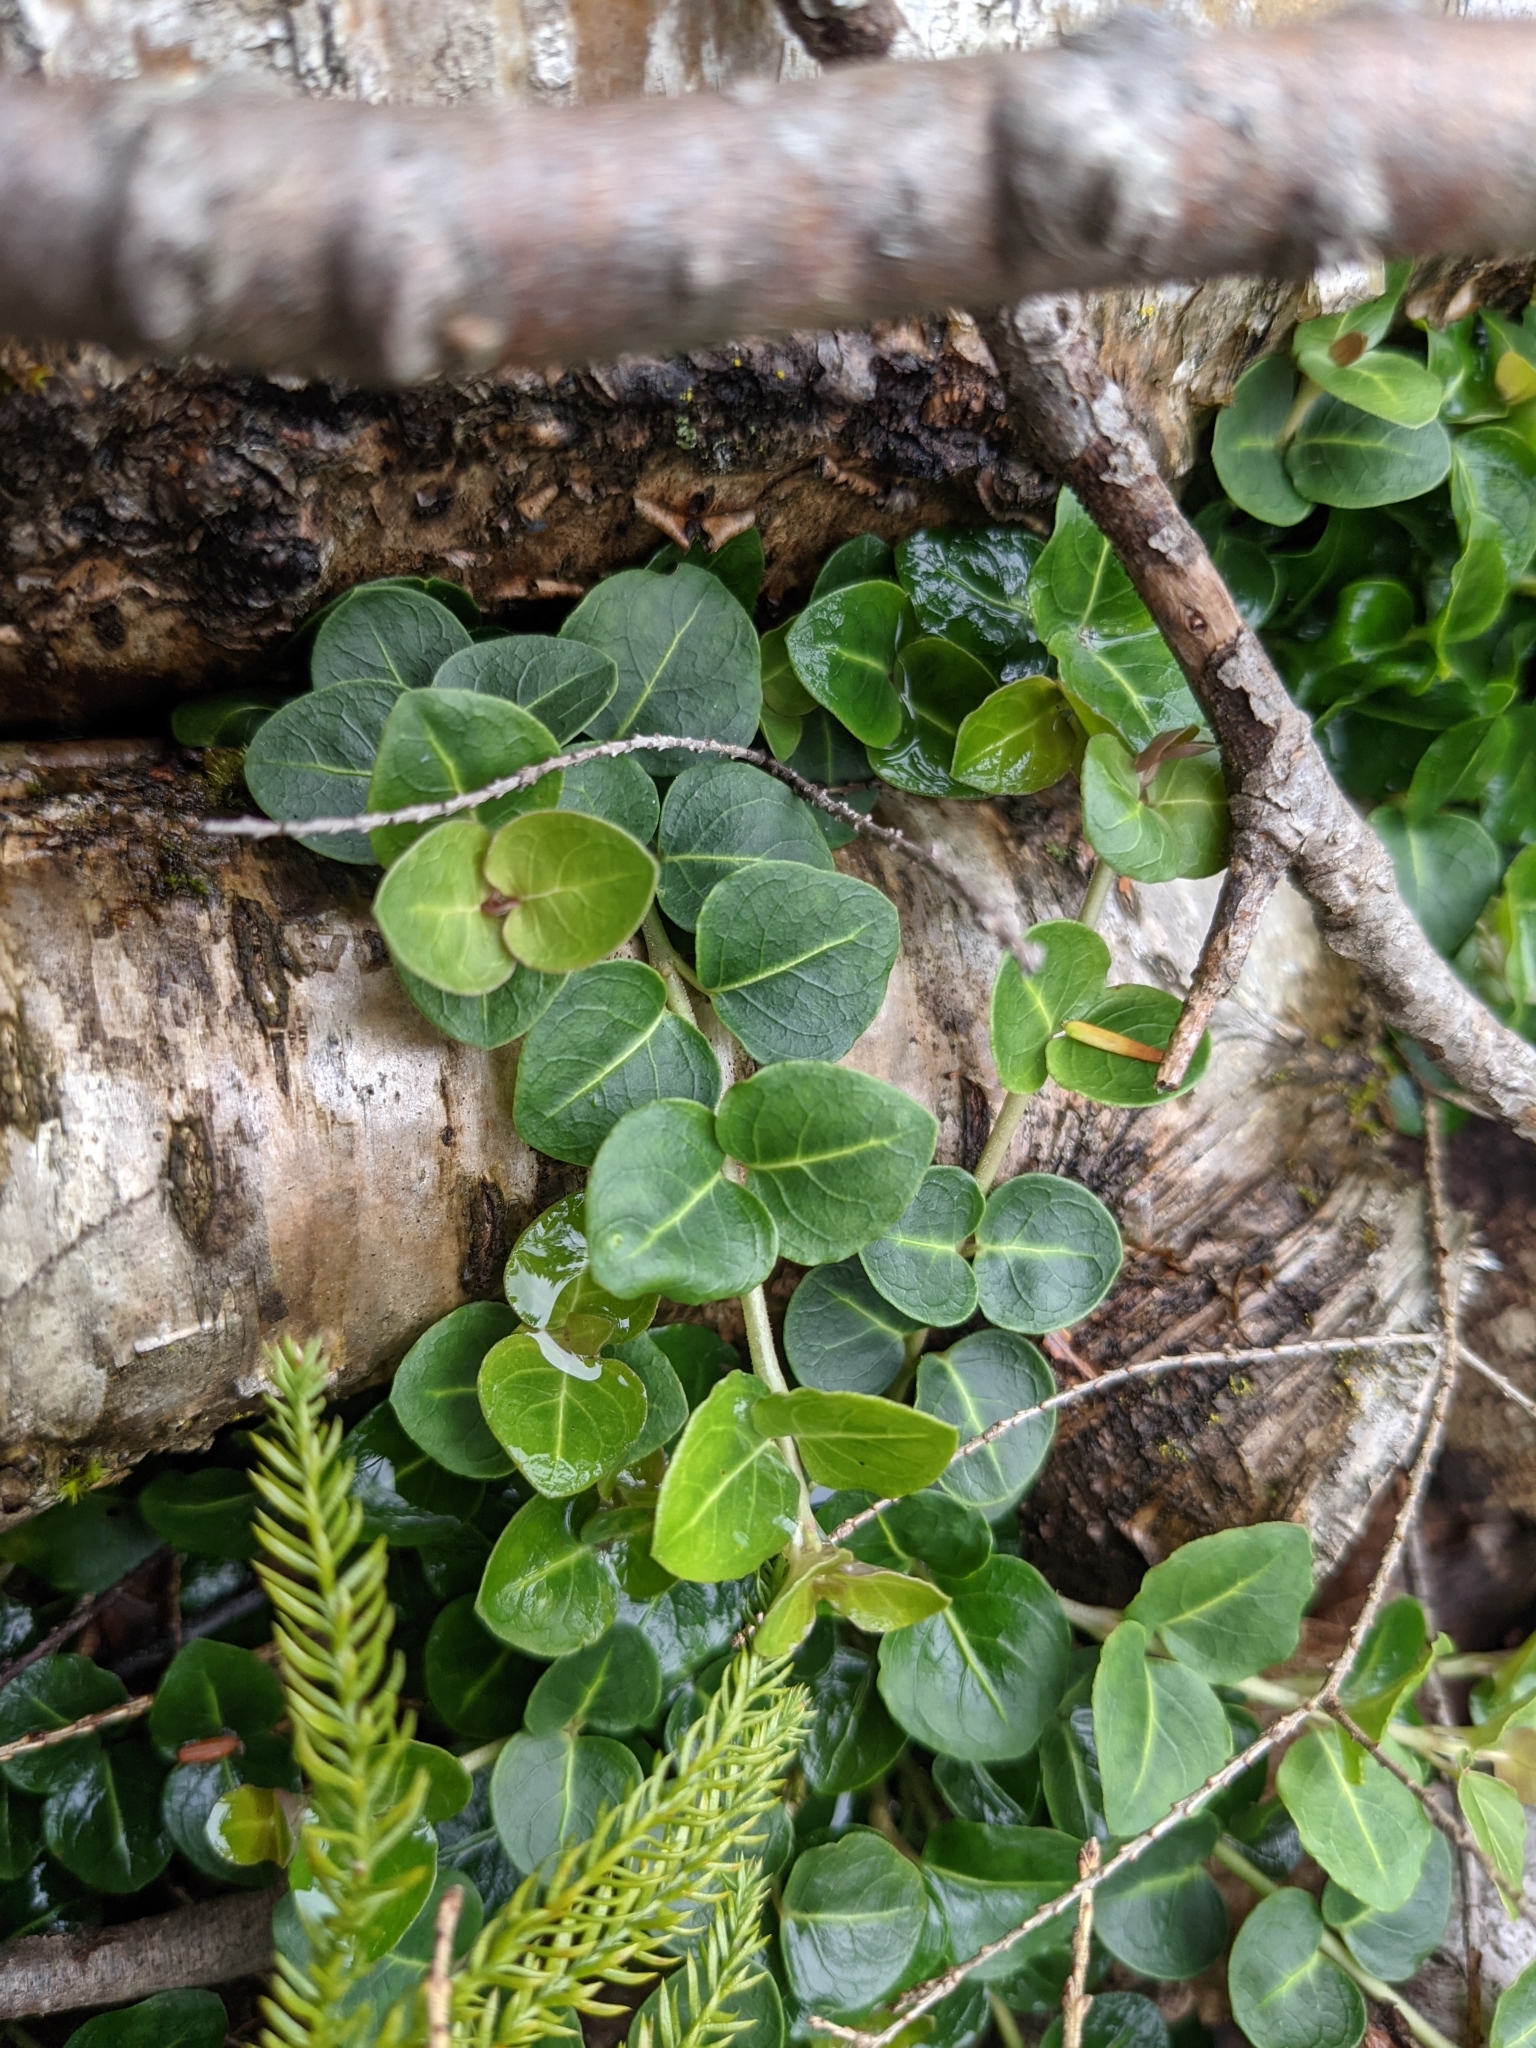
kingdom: Plantae
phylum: Tracheophyta
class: Magnoliopsida
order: Gentianales
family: Rubiaceae
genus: Mitchella
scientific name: Mitchella repens
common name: Partridge-berry
